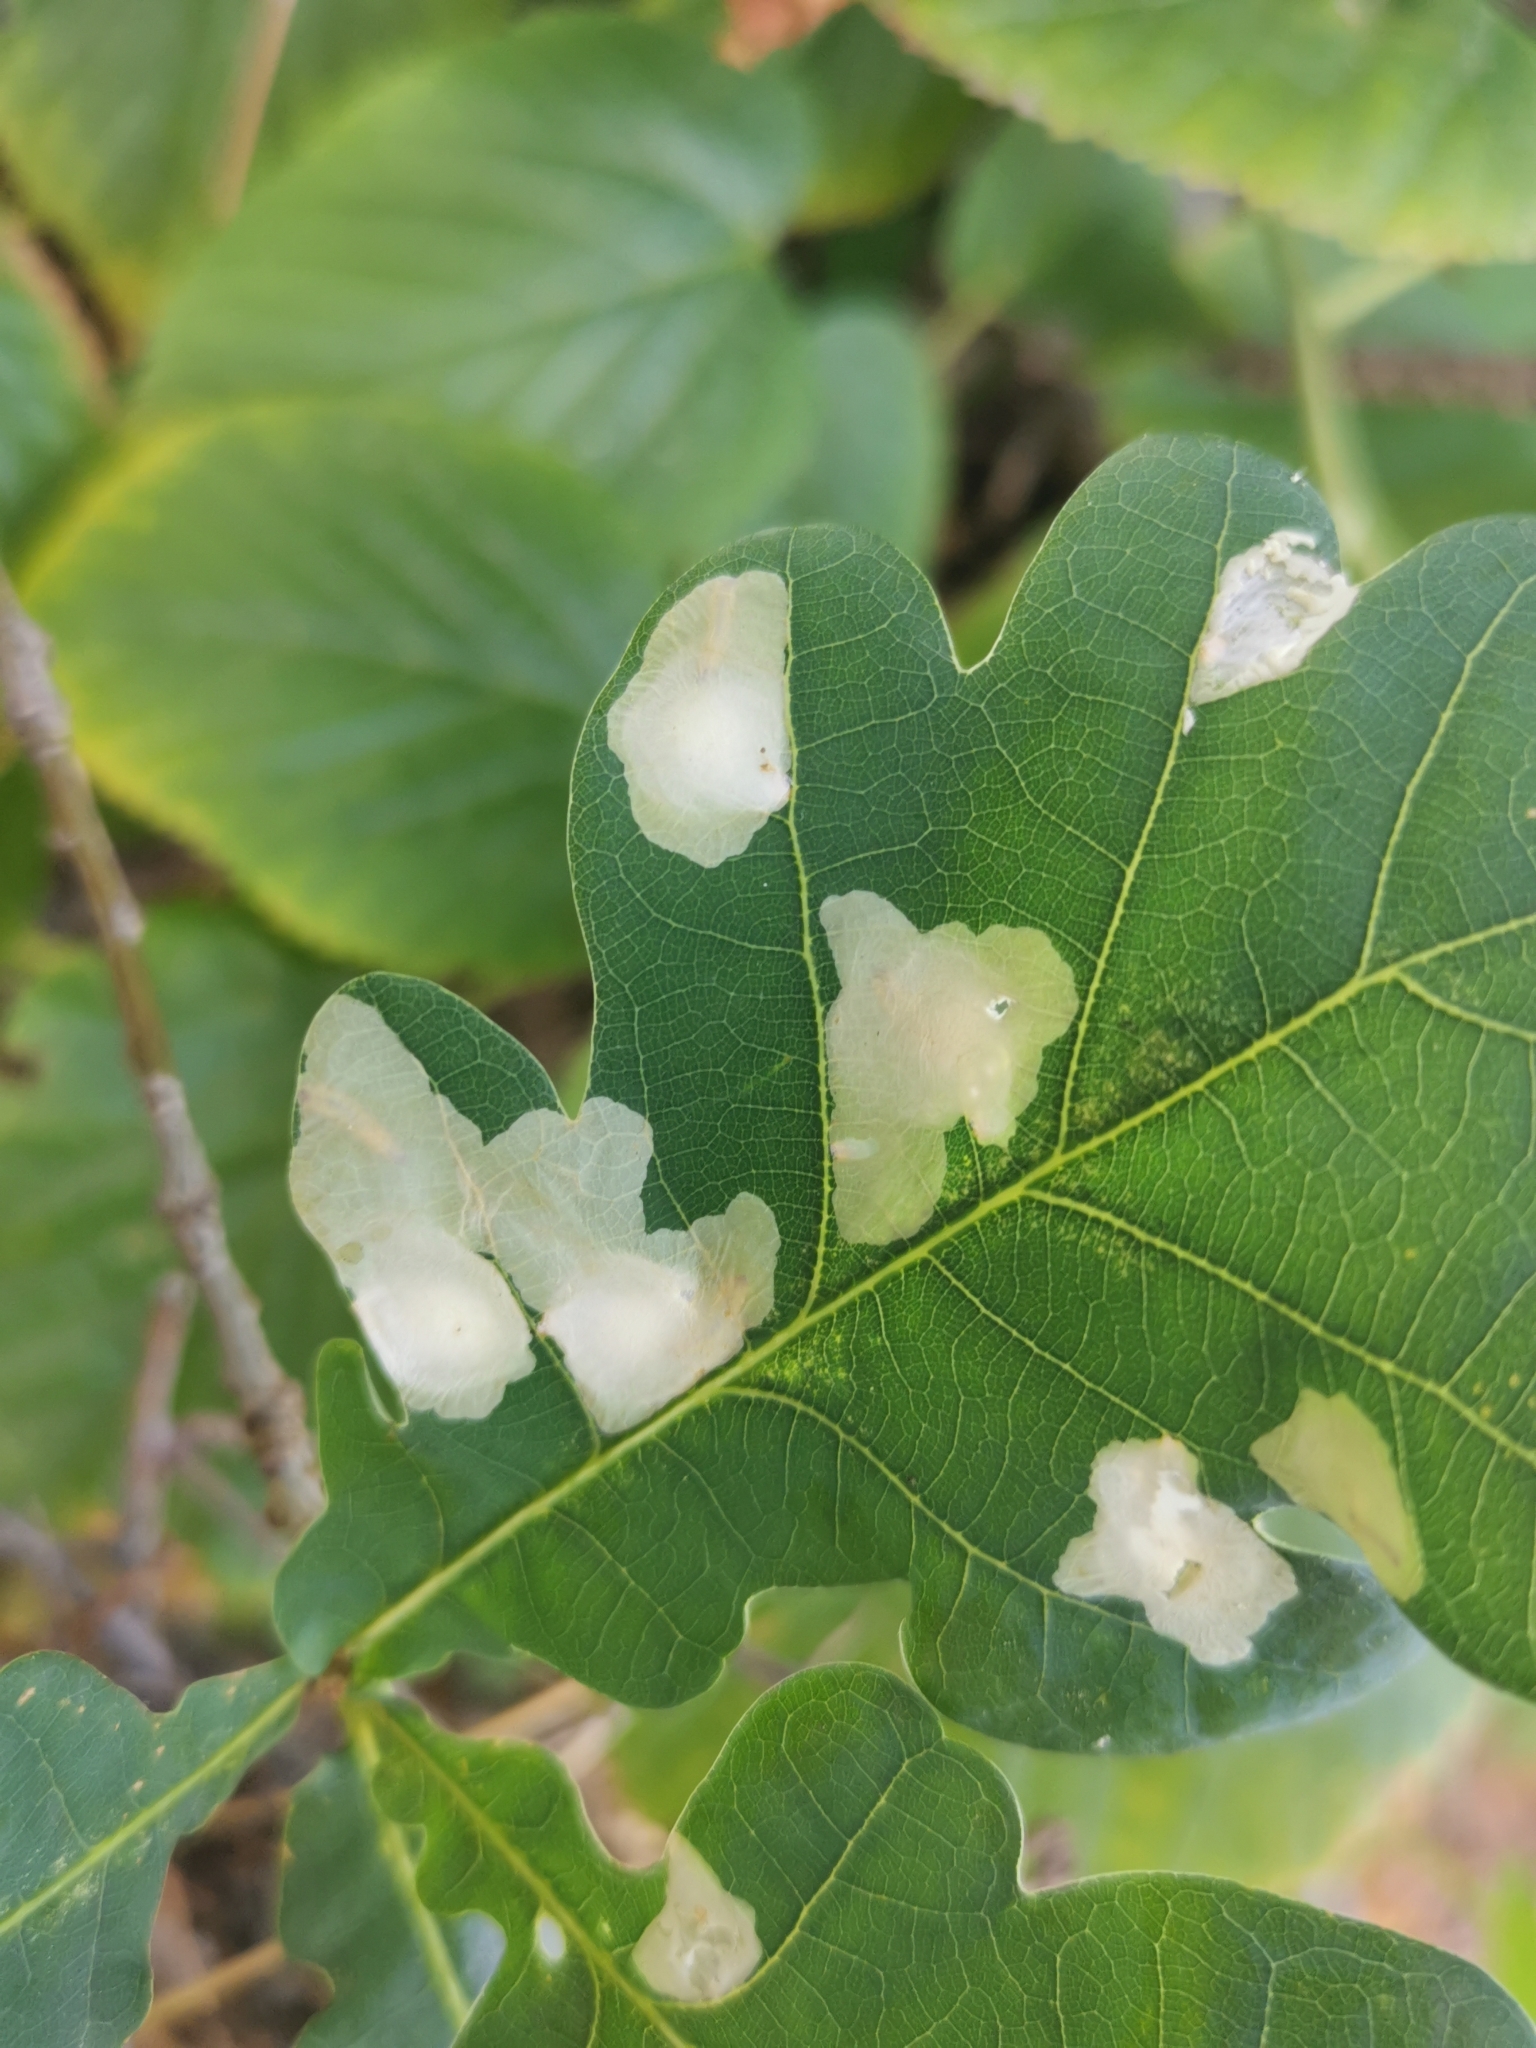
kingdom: Animalia
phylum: Arthropoda
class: Insecta
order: Lepidoptera
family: Tischeriidae
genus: Tischeria
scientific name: Tischeria ekebladella
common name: Oak carl
